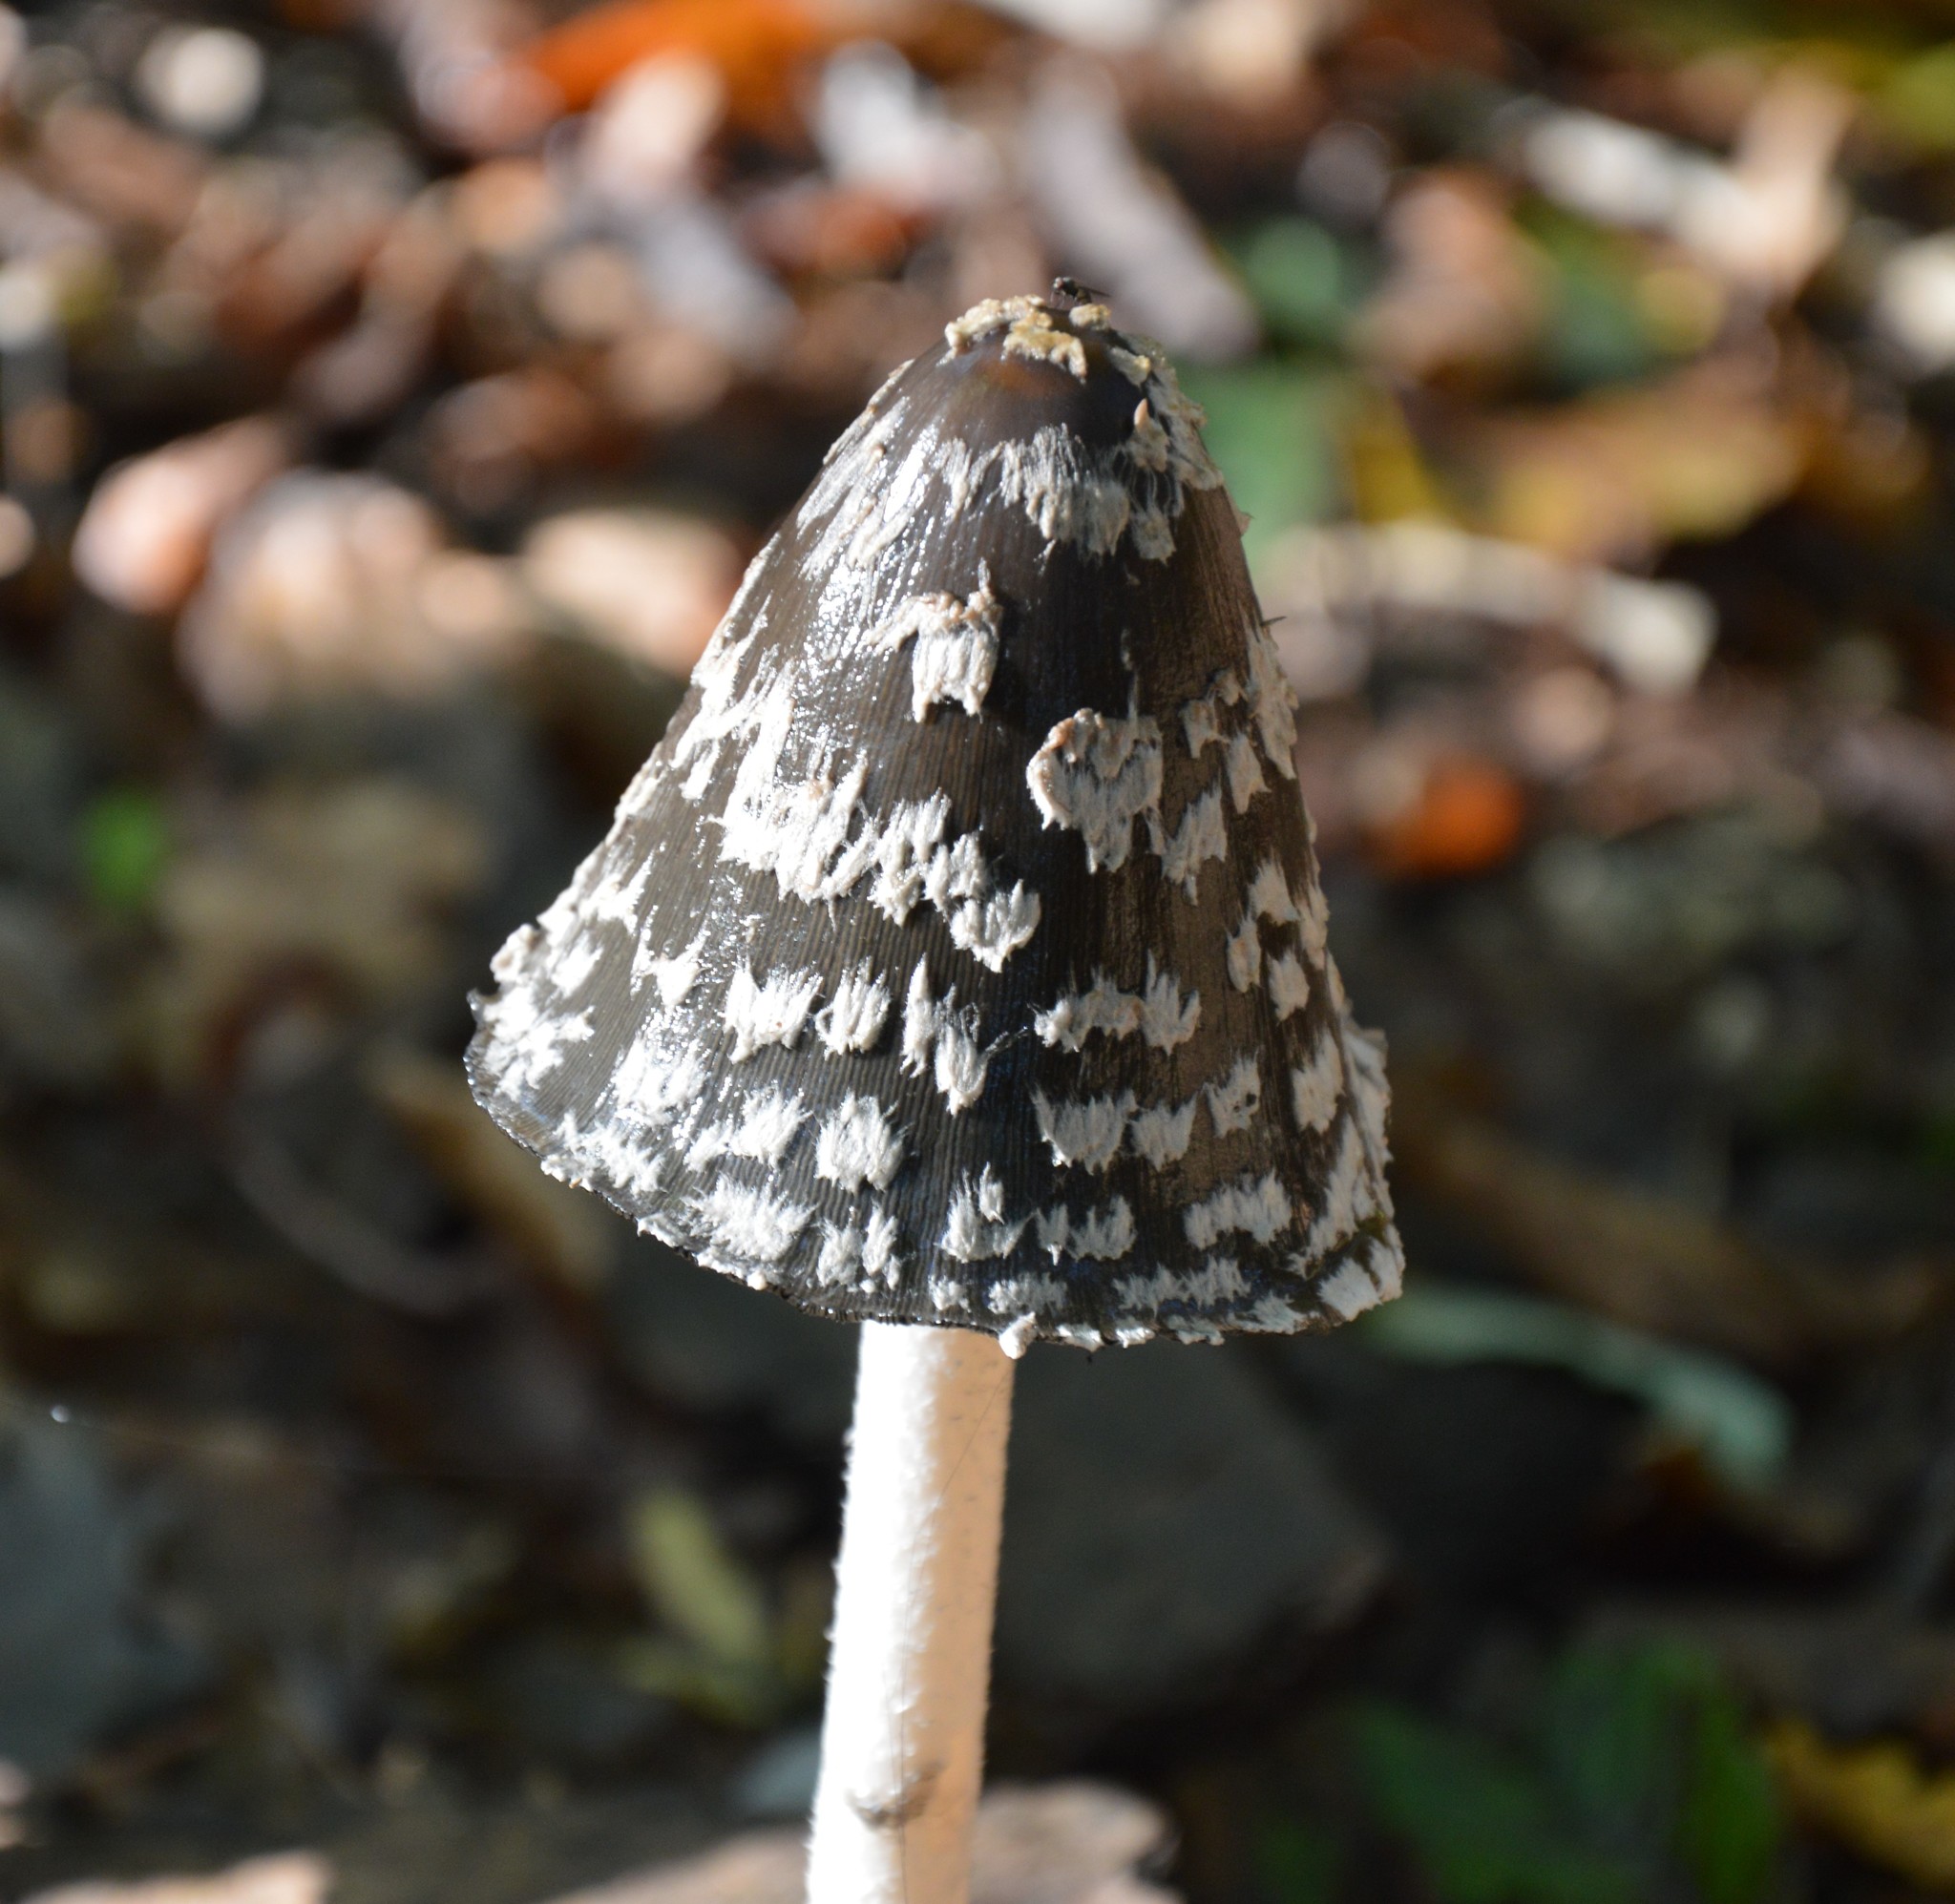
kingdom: Fungi
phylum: Basidiomycota
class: Agaricomycetes
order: Agaricales
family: Psathyrellaceae
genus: Coprinopsis
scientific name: Coprinopsis picacea
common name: Magpie inkcap
